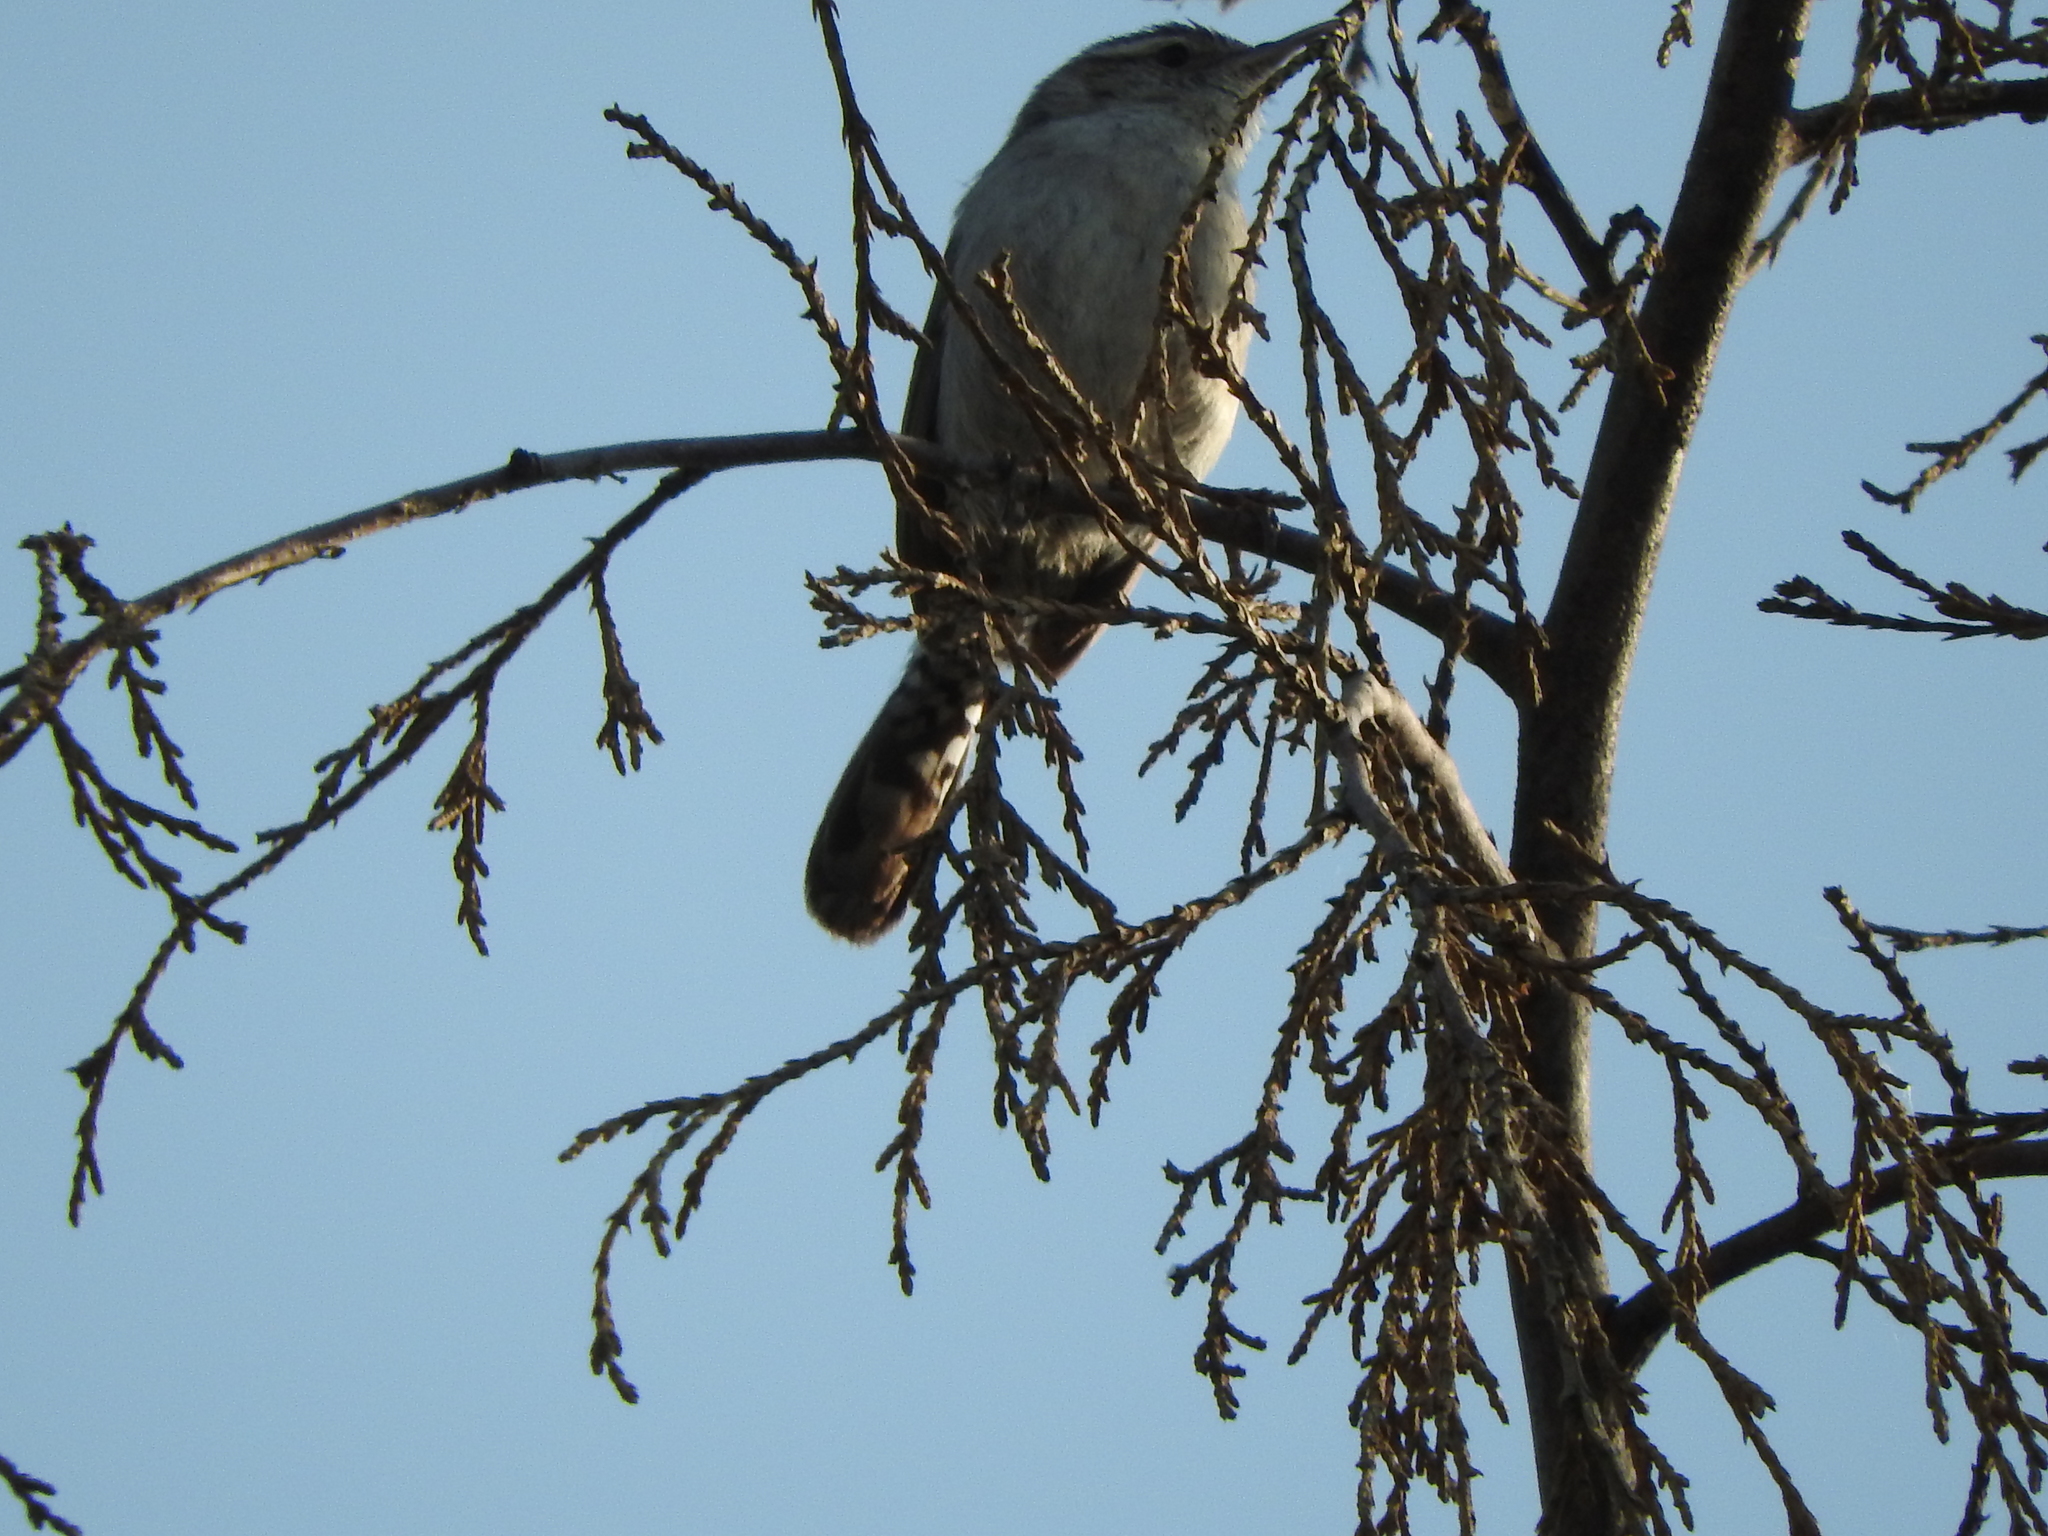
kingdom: Animalia
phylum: Chordata
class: Aves
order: Passeriformes
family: Troglodytidae
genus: Thryomanes
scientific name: Thryomanes bewickii
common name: Bewick's wren
